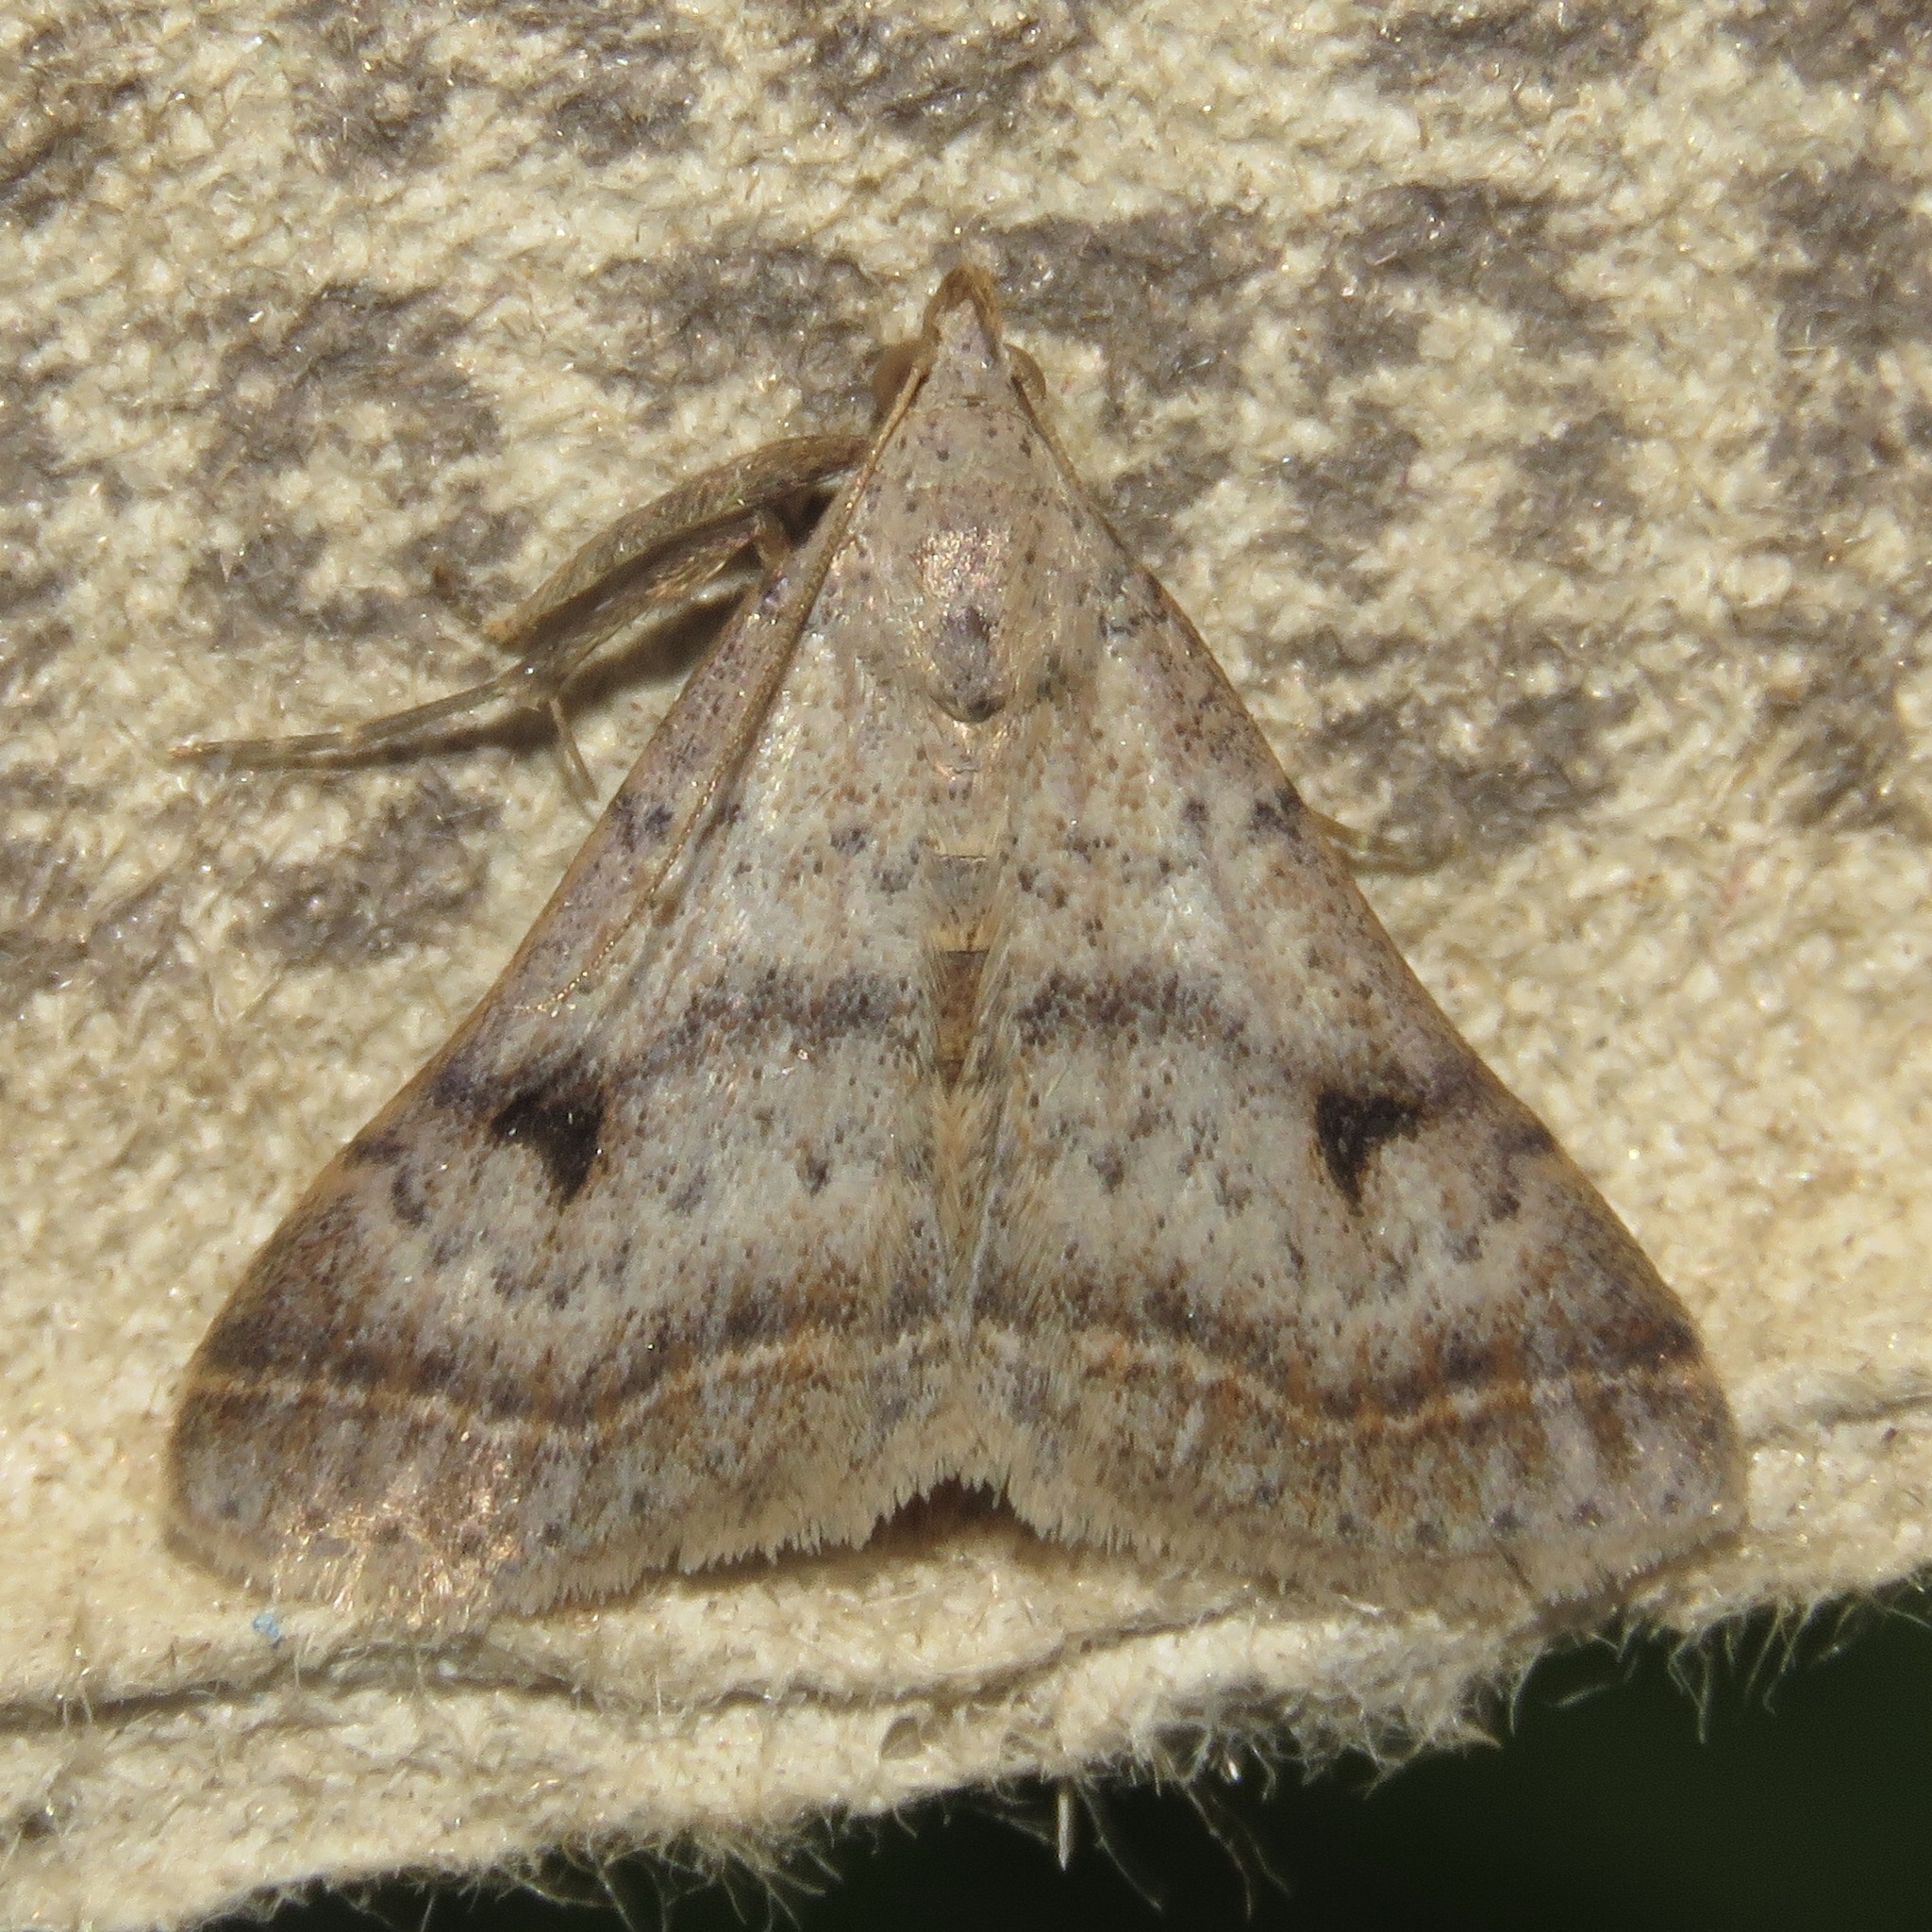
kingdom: Animalia
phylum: Arthropoda
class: Insecta
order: Lepidoptera
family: Erebidae
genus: Bleptina
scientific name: Bleptina caradrinalis
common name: Bent-winged owlet
